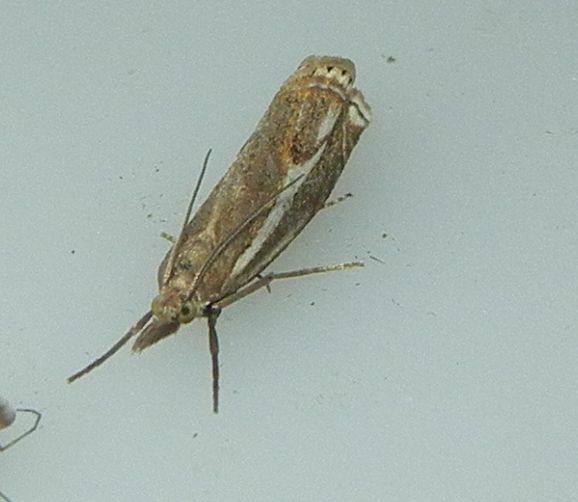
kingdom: Animalia
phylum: Arthropoda
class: Insecta
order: Lepidoptera
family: Crambidae
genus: Crambus
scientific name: Crambus nemorella
